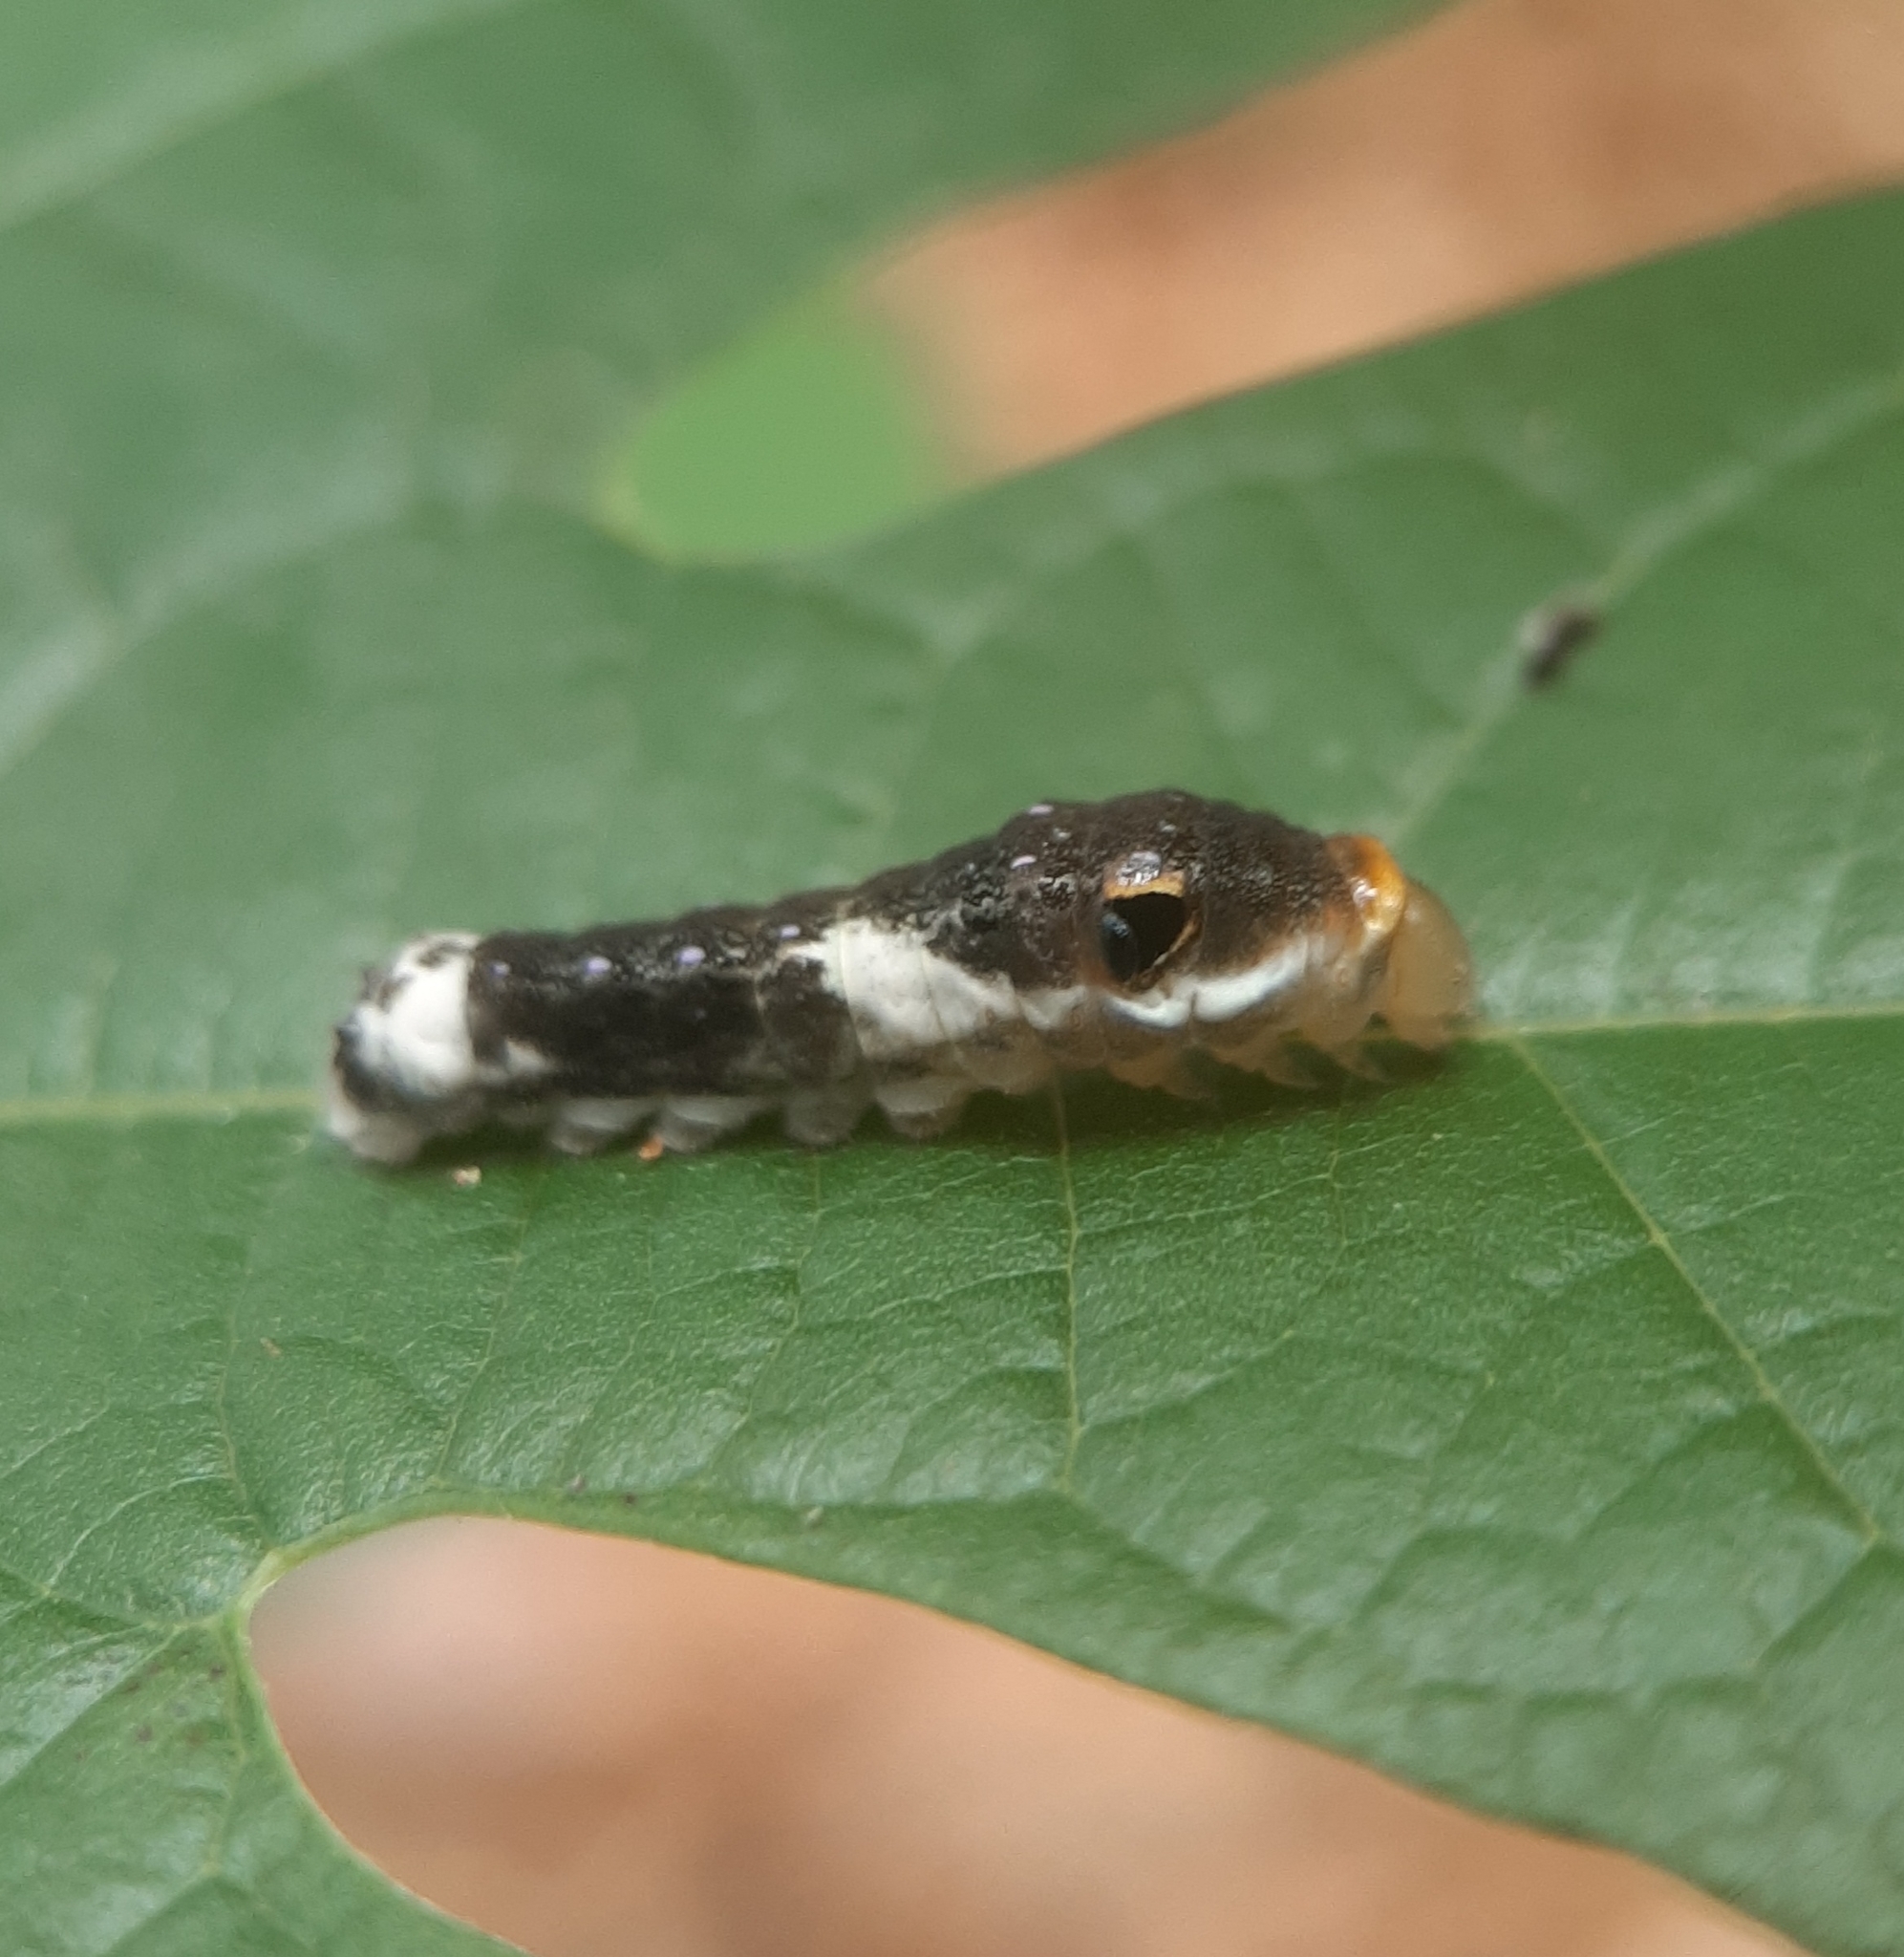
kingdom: Animalia
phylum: Arthropoda
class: Insecta
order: Lepidoptera
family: Papilionidae
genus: Papilio
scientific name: Papilio troilus
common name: Spicebush swallowtail
